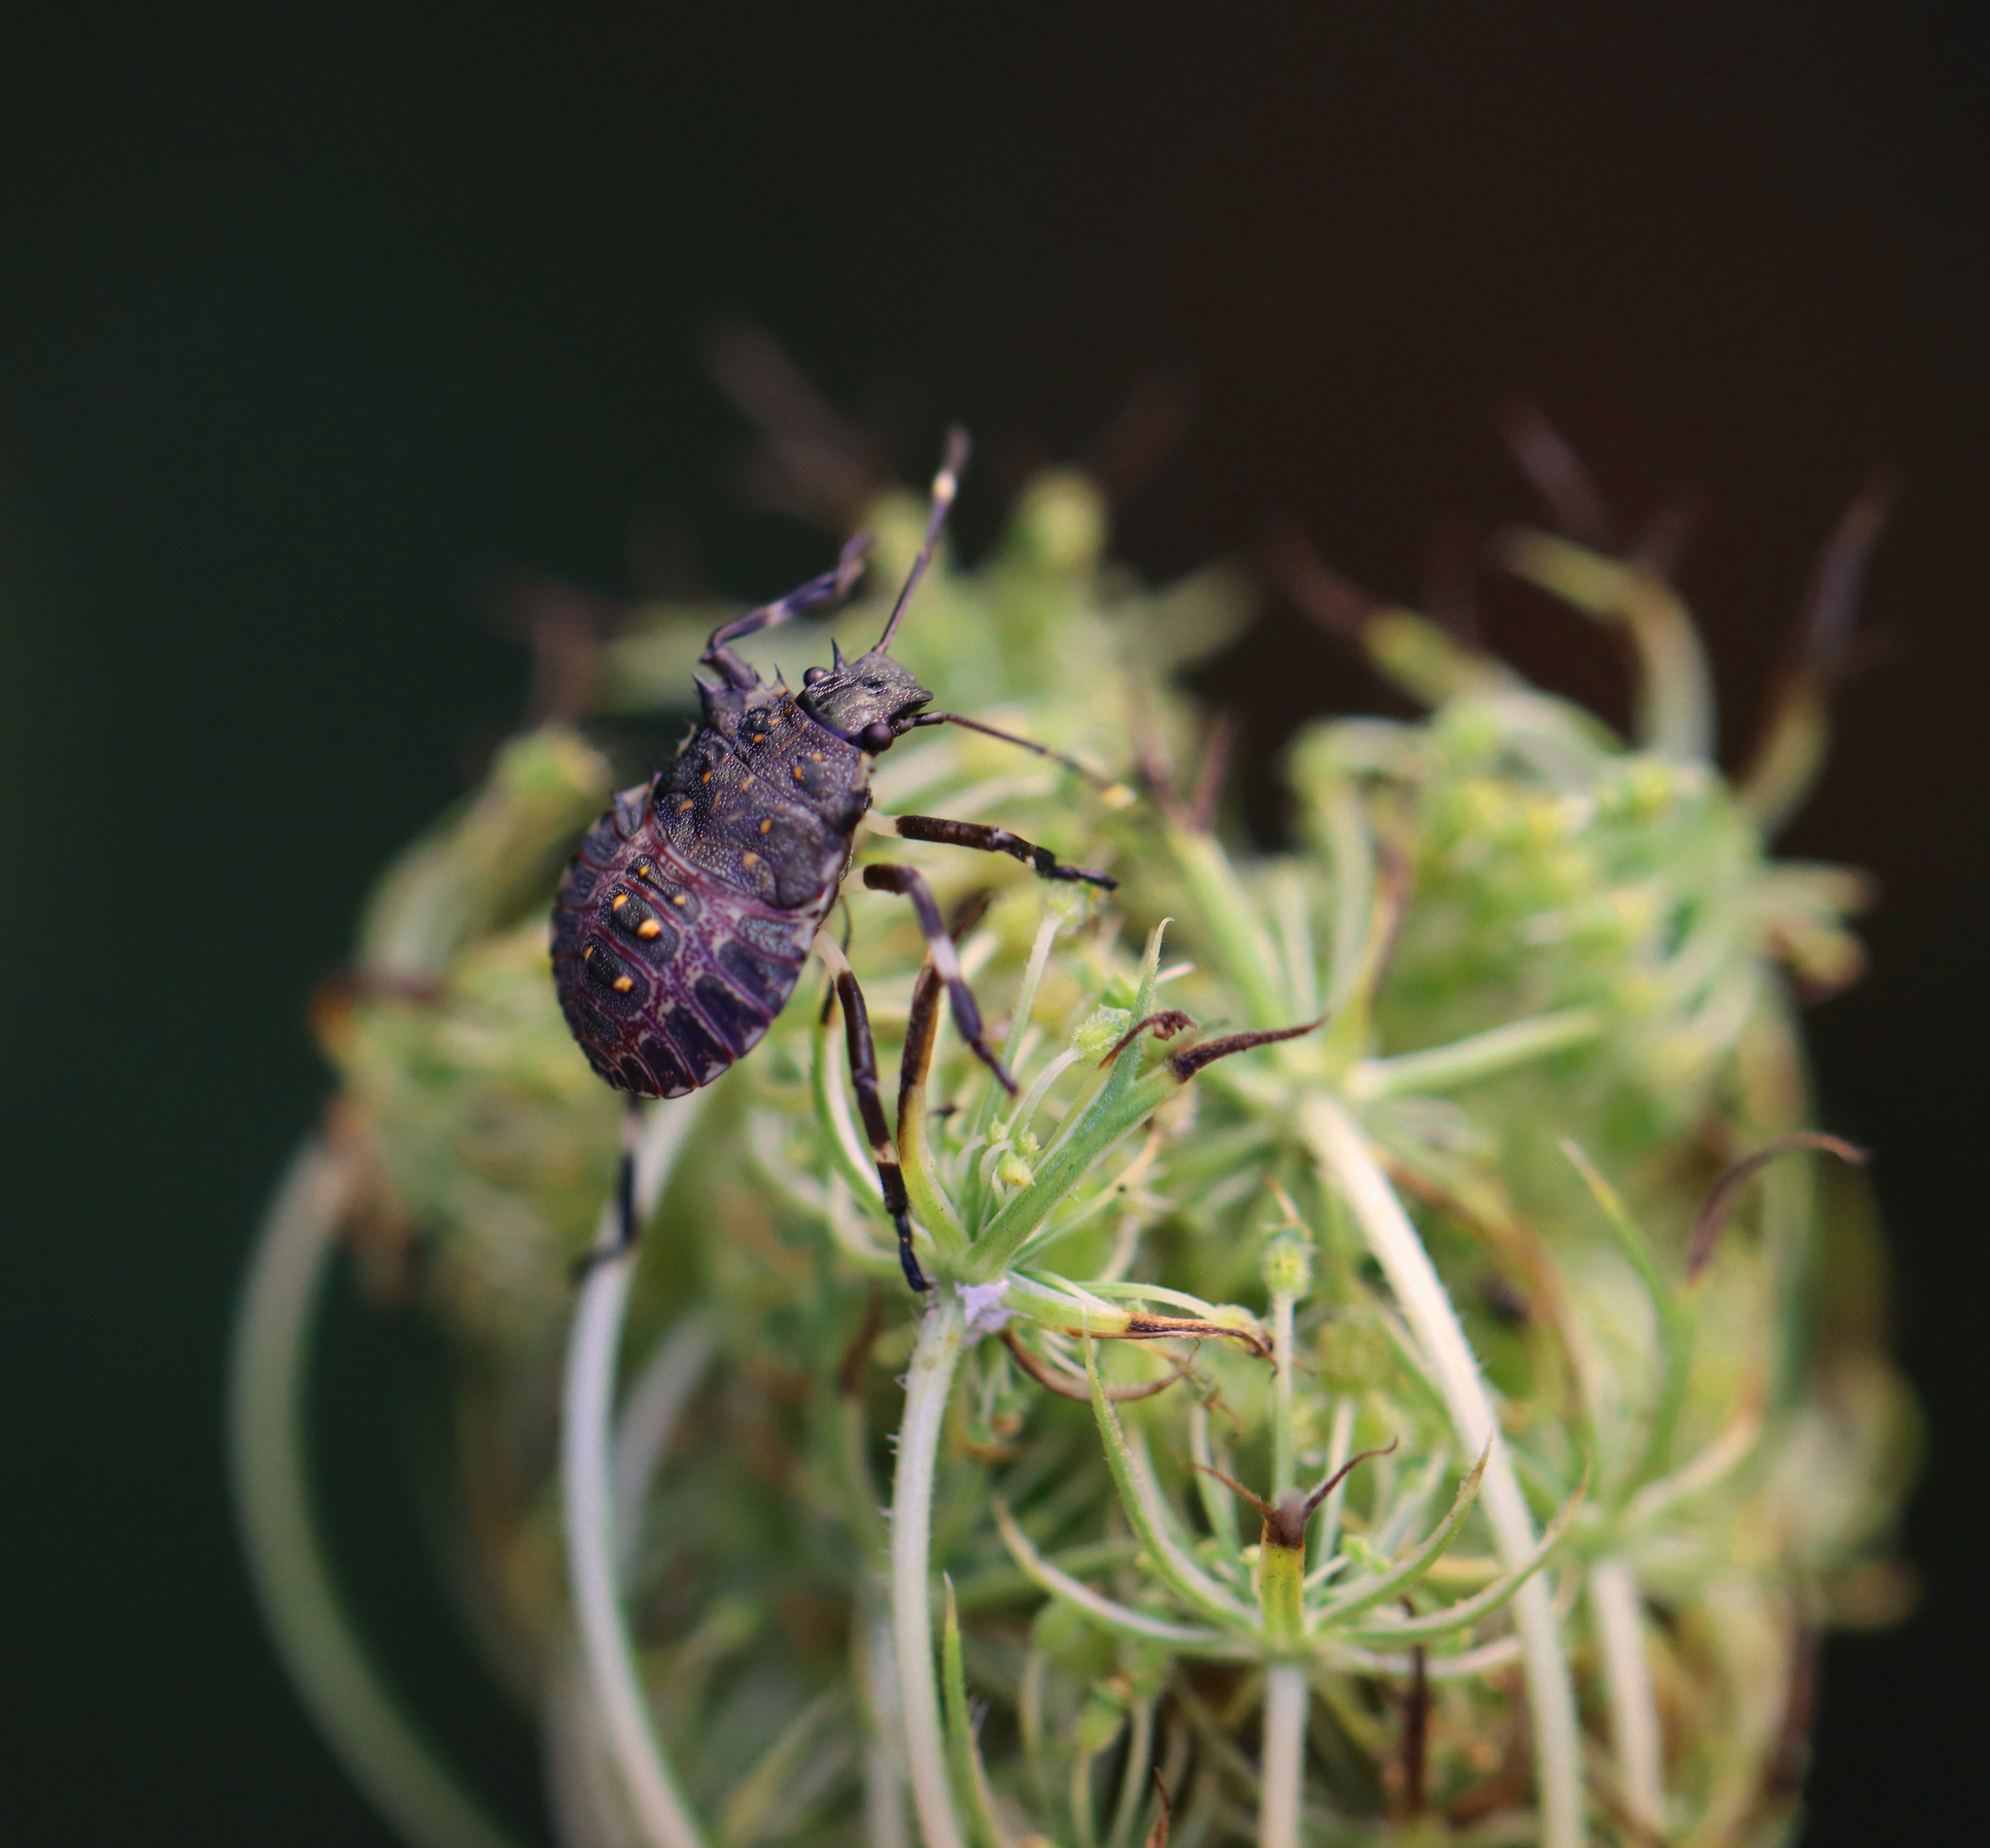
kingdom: Animalia
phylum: Arthropoda
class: Insecta
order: Hemiptera
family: Pentatomidae
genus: Halyomorpha
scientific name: Halyomorpha halys
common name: Brown marmorated stink bug
